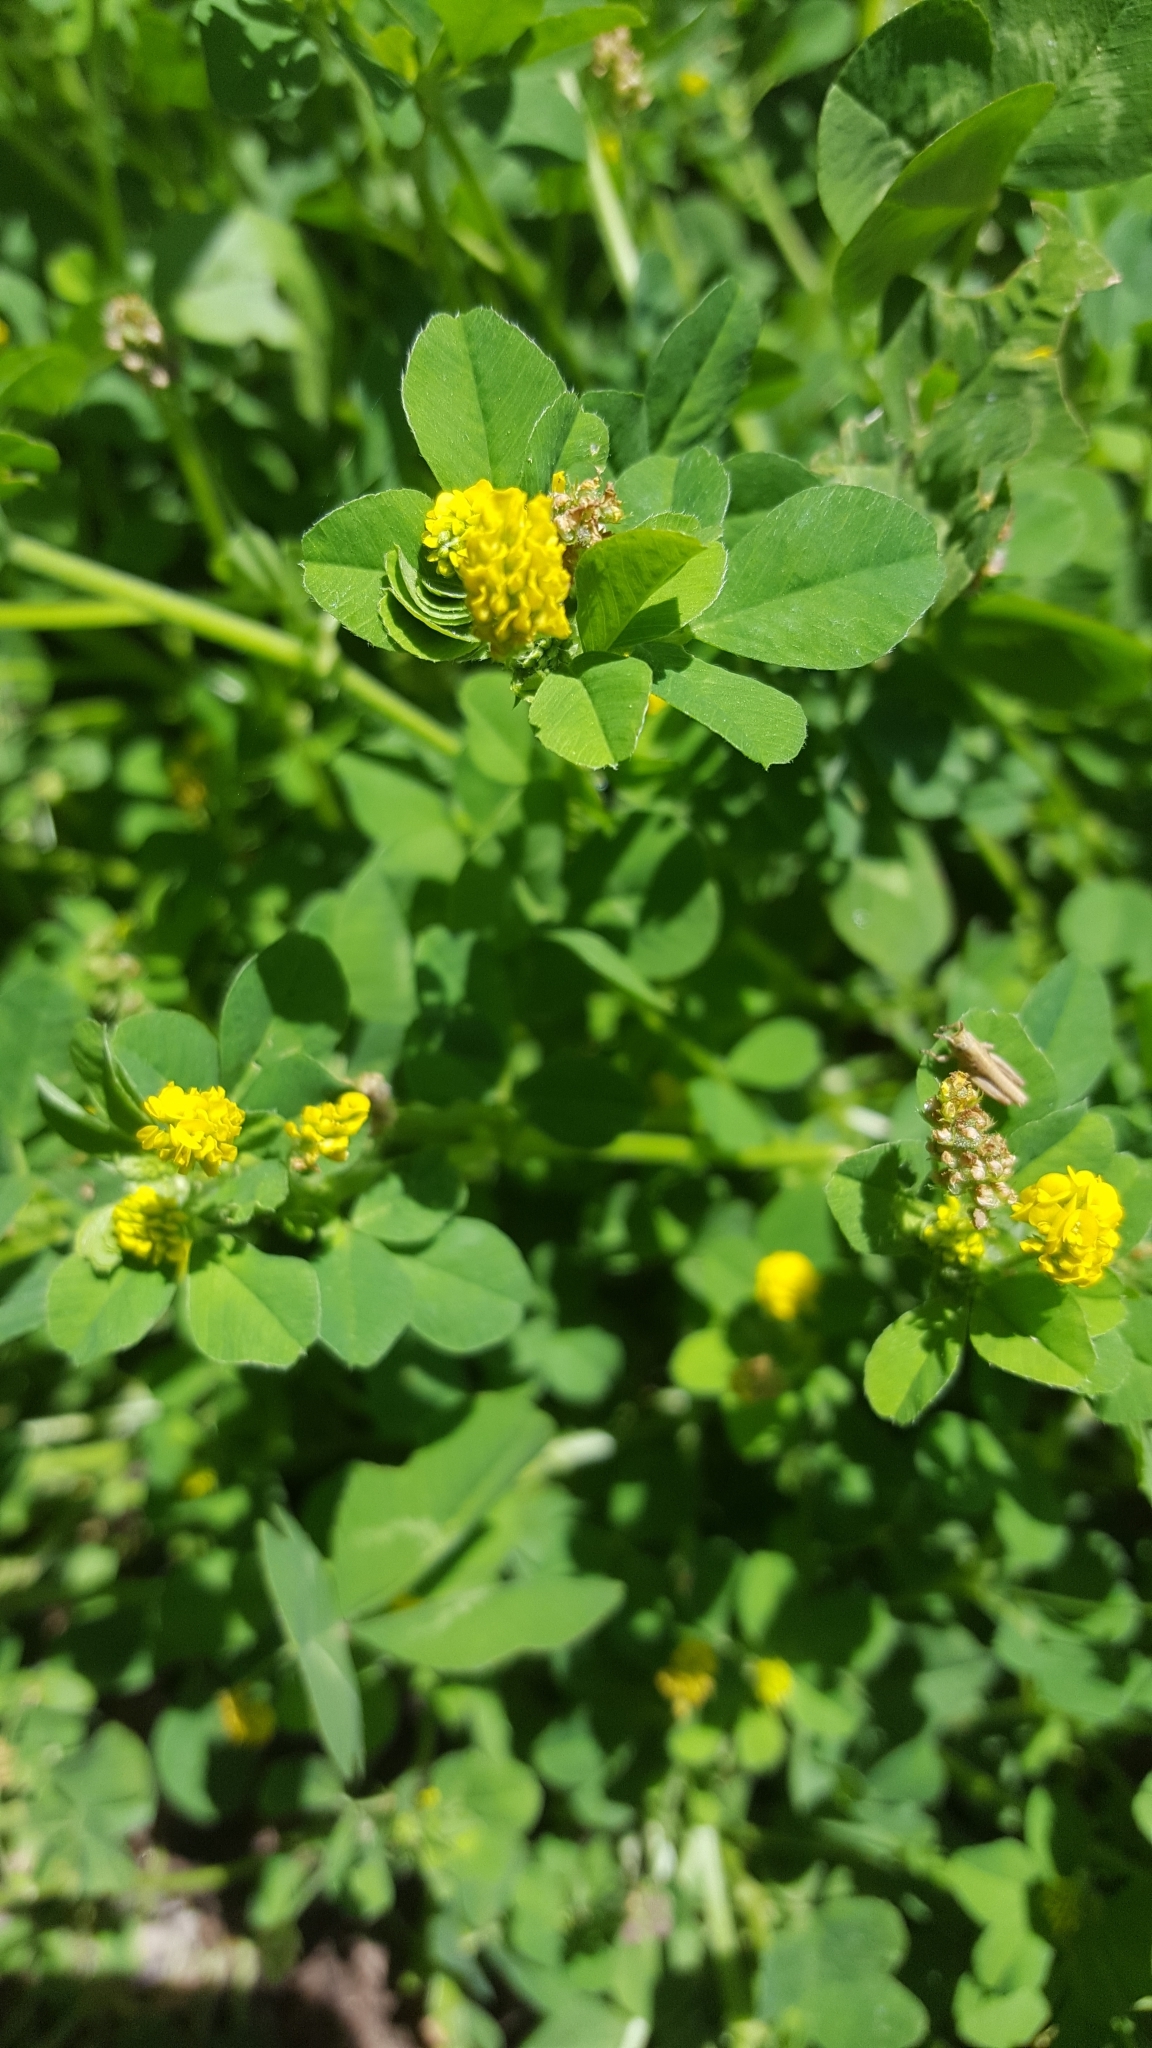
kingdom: Plantae
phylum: Tracheophyta
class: Magnoliopsida
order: Fabales
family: Fabaceae
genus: Medicago
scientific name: Medicago lupulina
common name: Black medick
